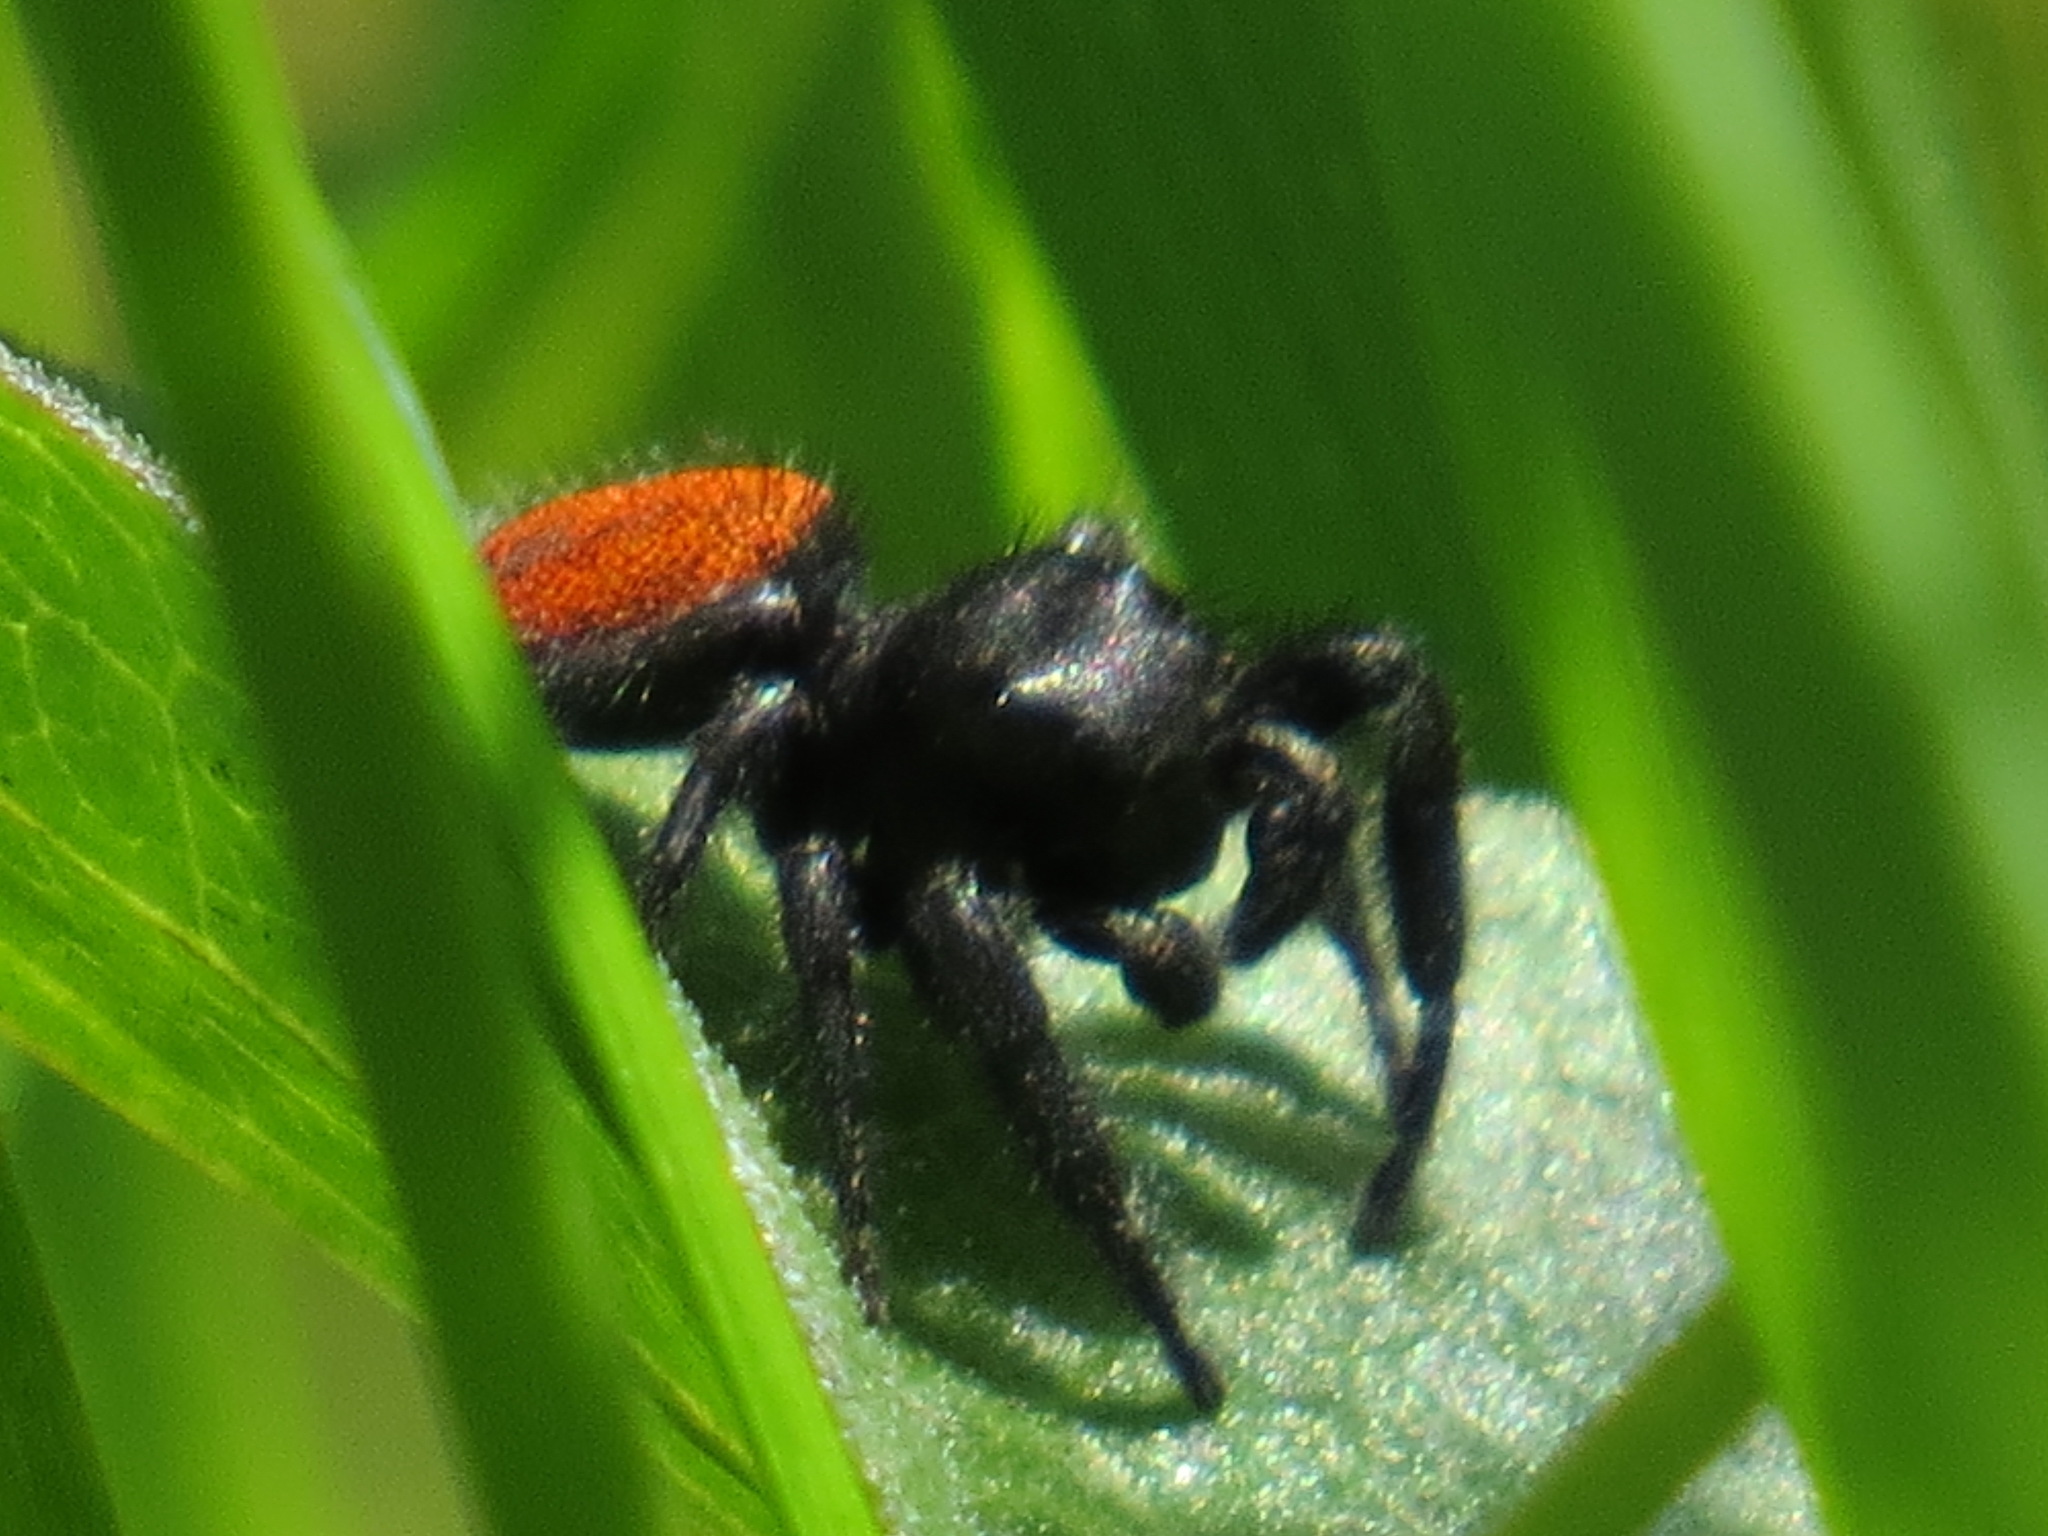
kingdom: Animalia
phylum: Arthropoda
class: Arachnida
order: Araneae
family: Salticidae
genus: Phidippus
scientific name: Phidippus johnsoni
